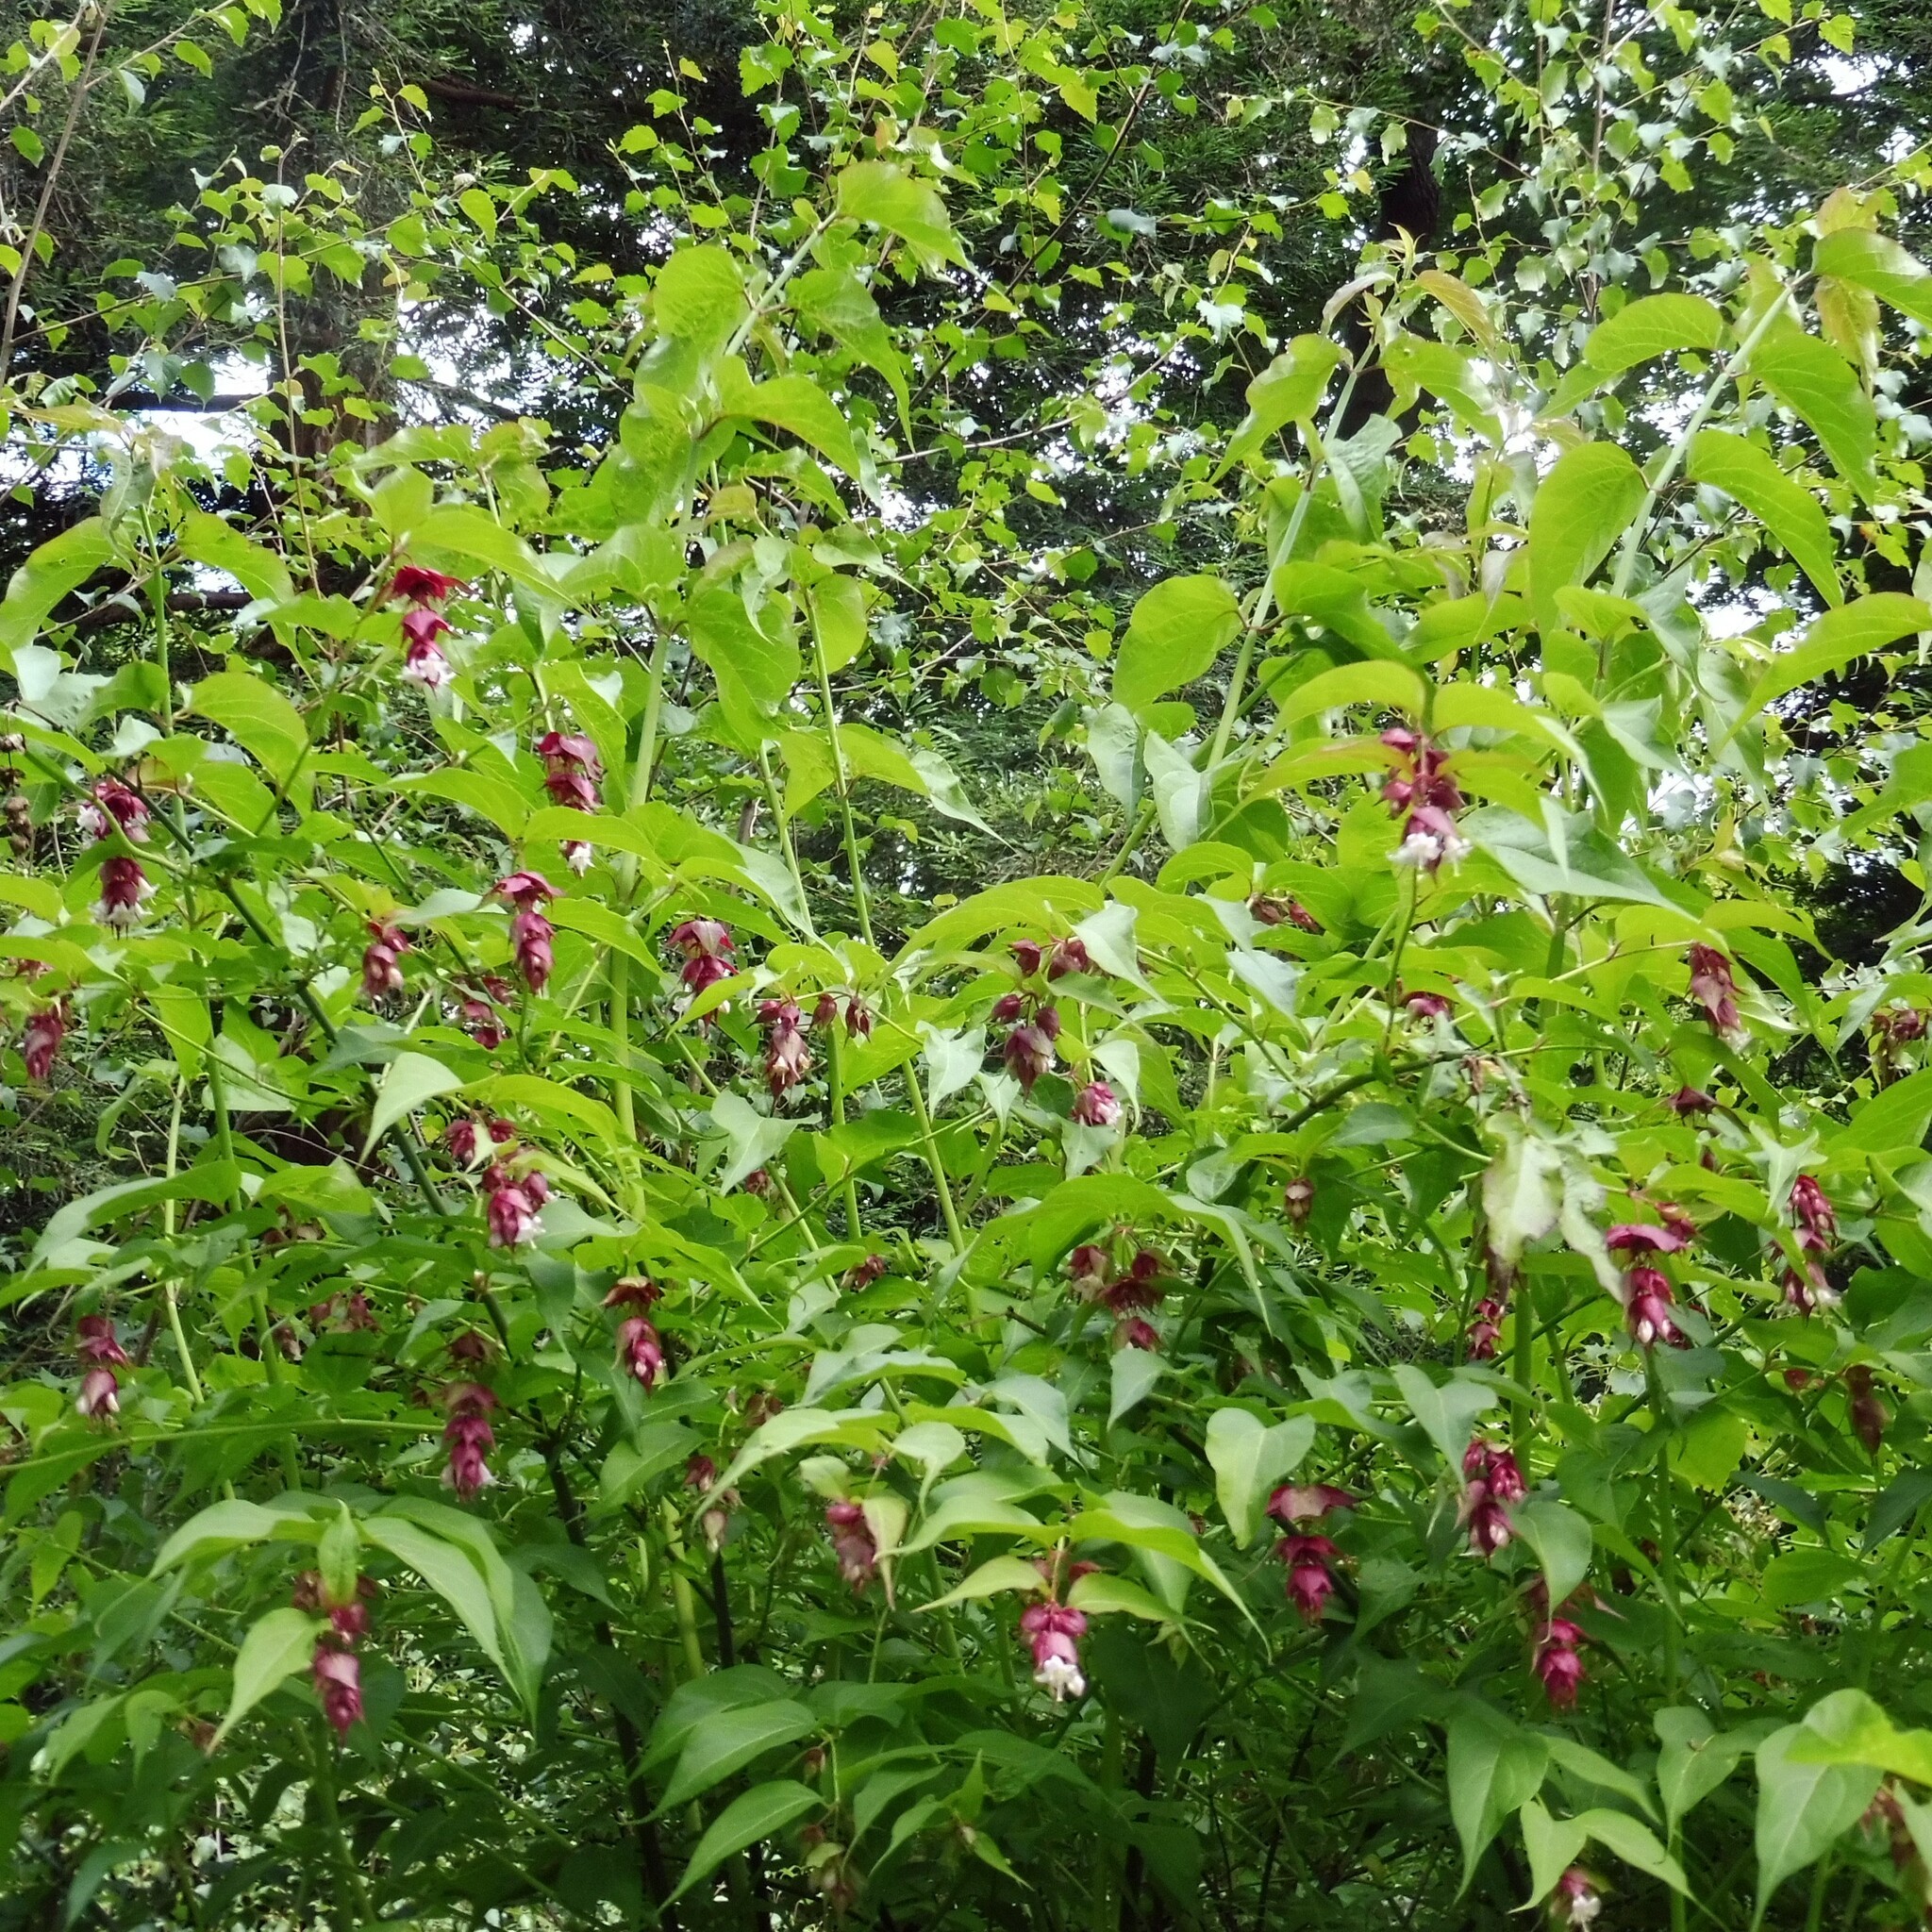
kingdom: Plantae
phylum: Tracheophyta
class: Magnoliopsida
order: Dipsacales
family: Caprifoliaceae
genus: Leycesteria
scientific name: Leycesteria formosa
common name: Himalayan honeysuckle
